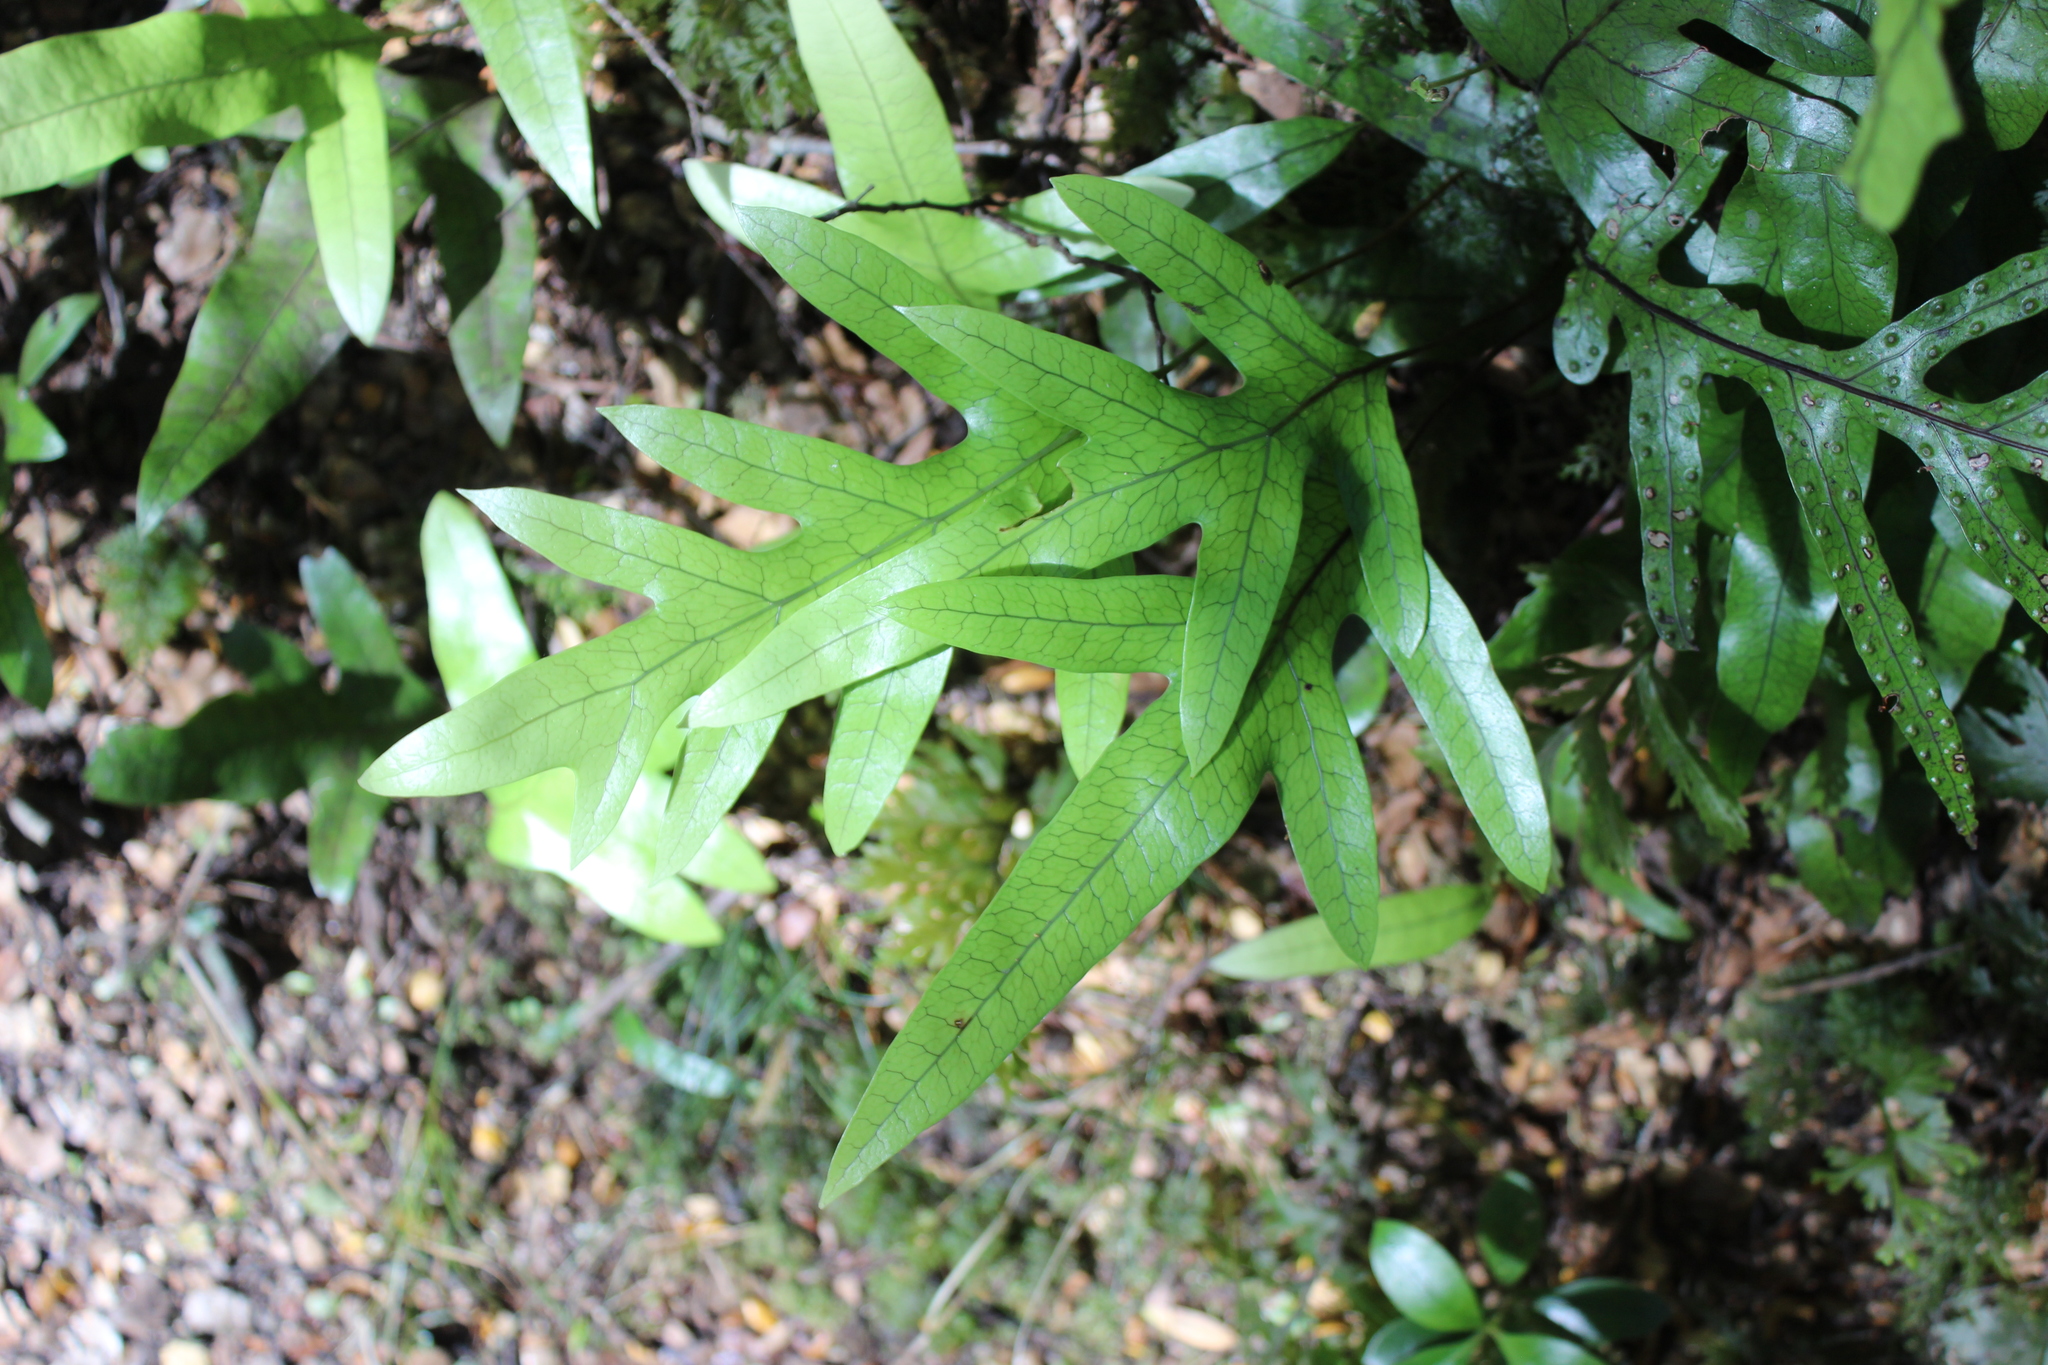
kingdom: Plantae
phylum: Tracheophyta
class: Polypodiopsida
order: Polypodiales
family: Polypodiaceae
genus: Lecanopteris
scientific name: Lecanopteris pustulata
